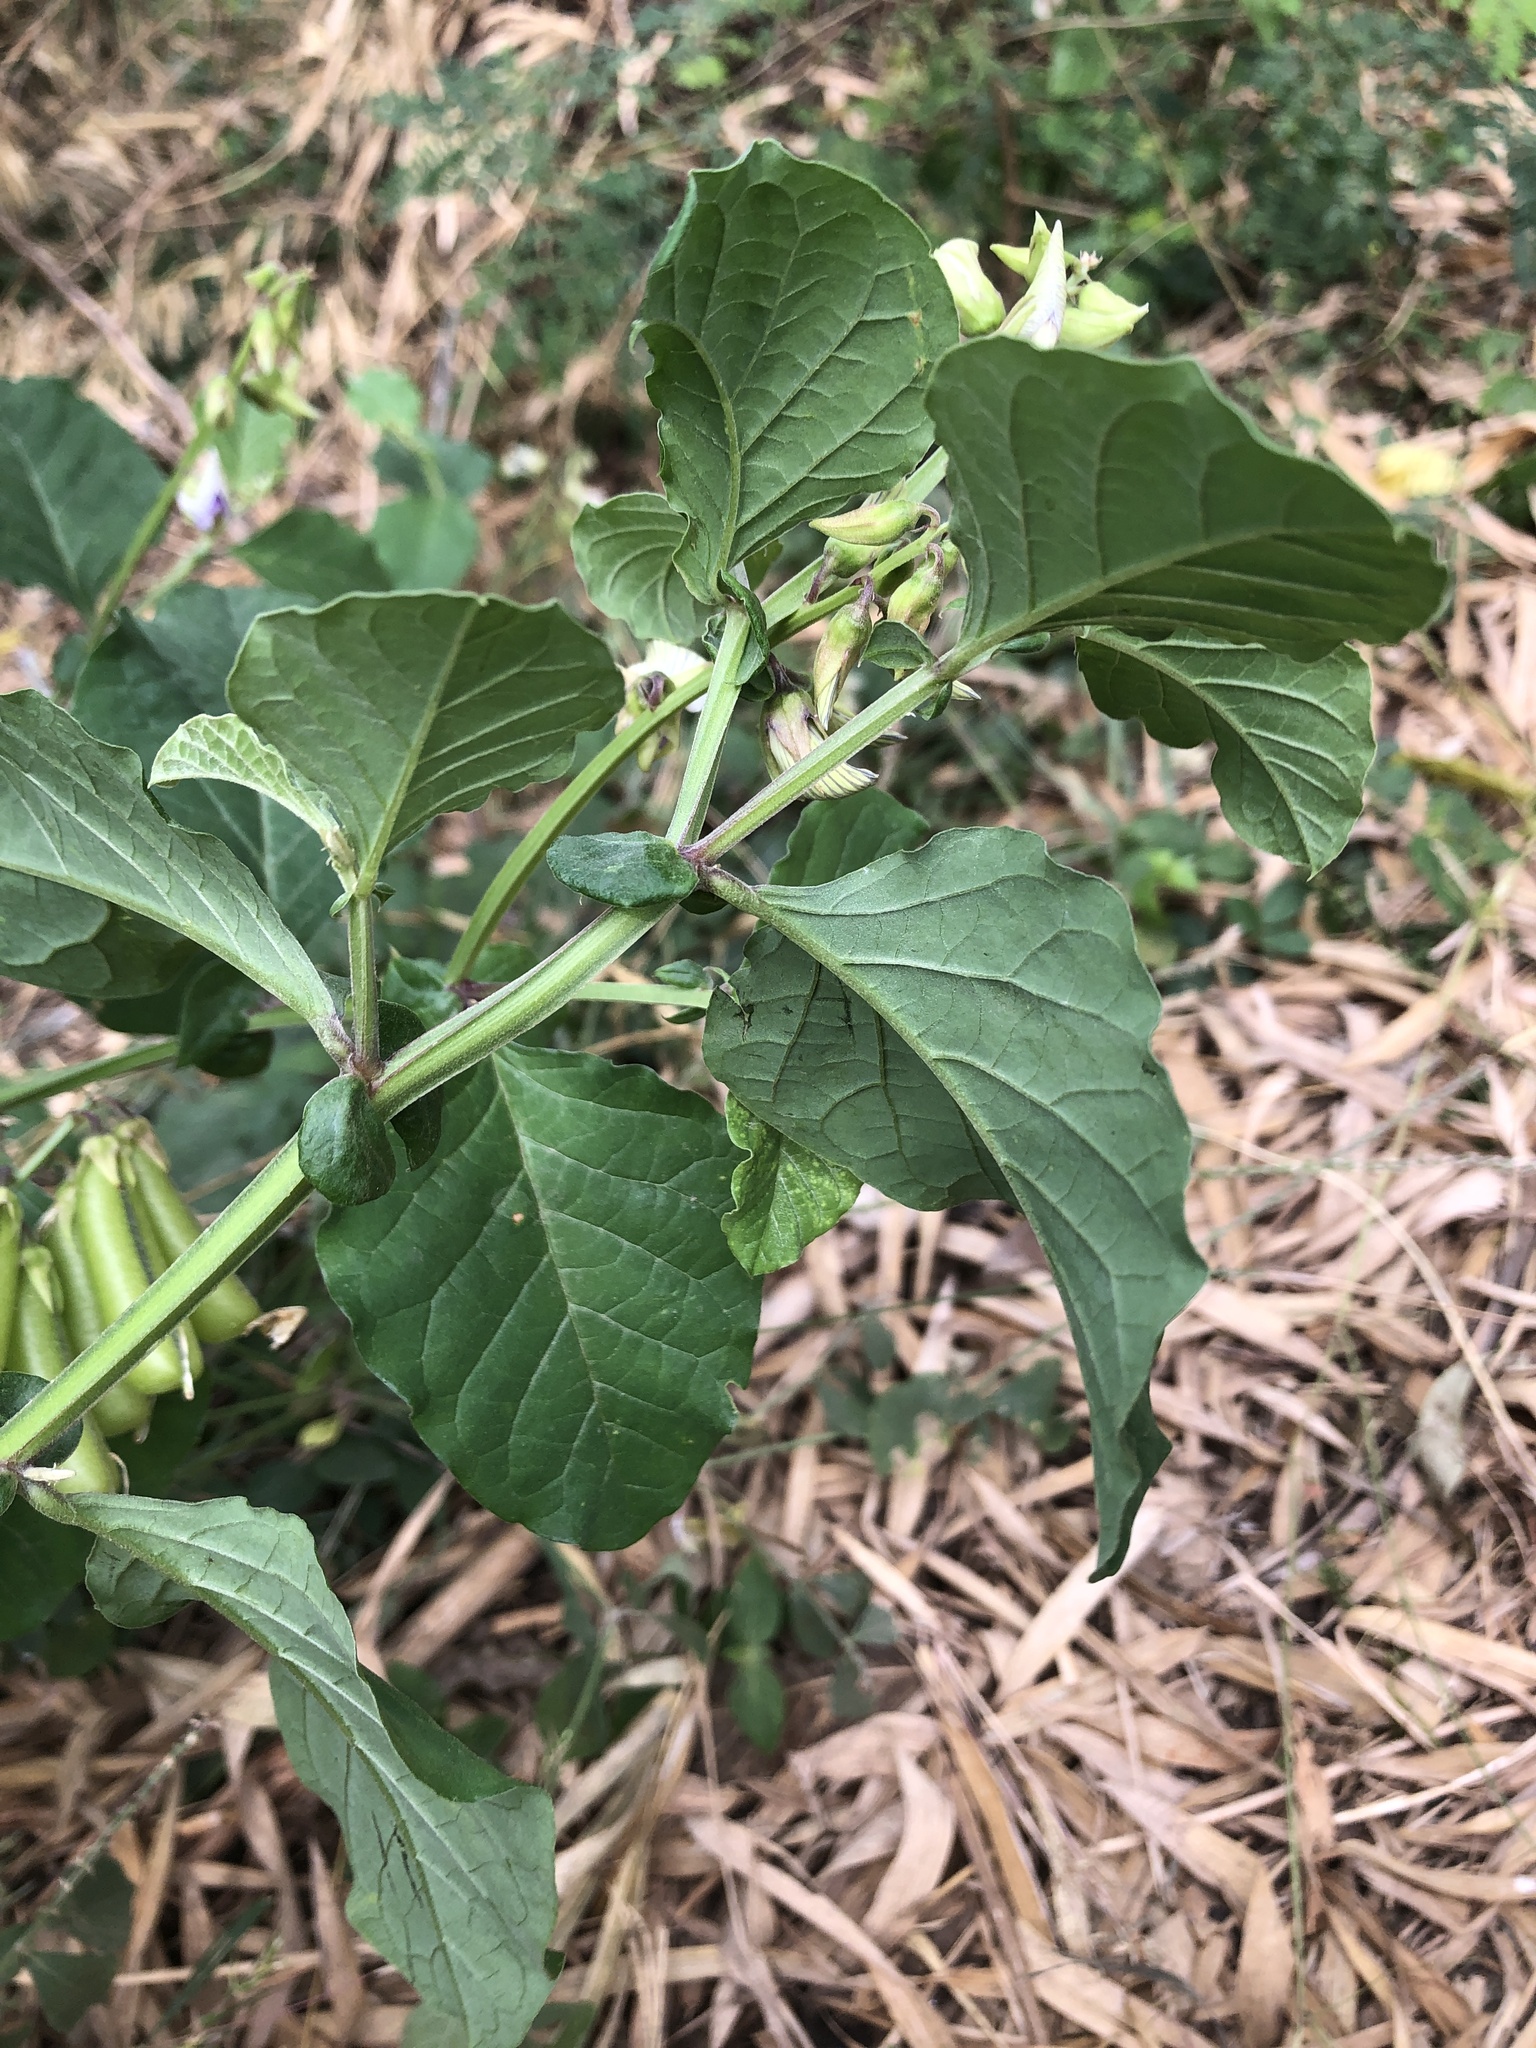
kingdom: Plantae
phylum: Tracheophyta
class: Magnoliopsida
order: Fabales
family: Fabaceae
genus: Crotalaria
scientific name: Crotalaria verrucosa
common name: Blue rattlesnake
